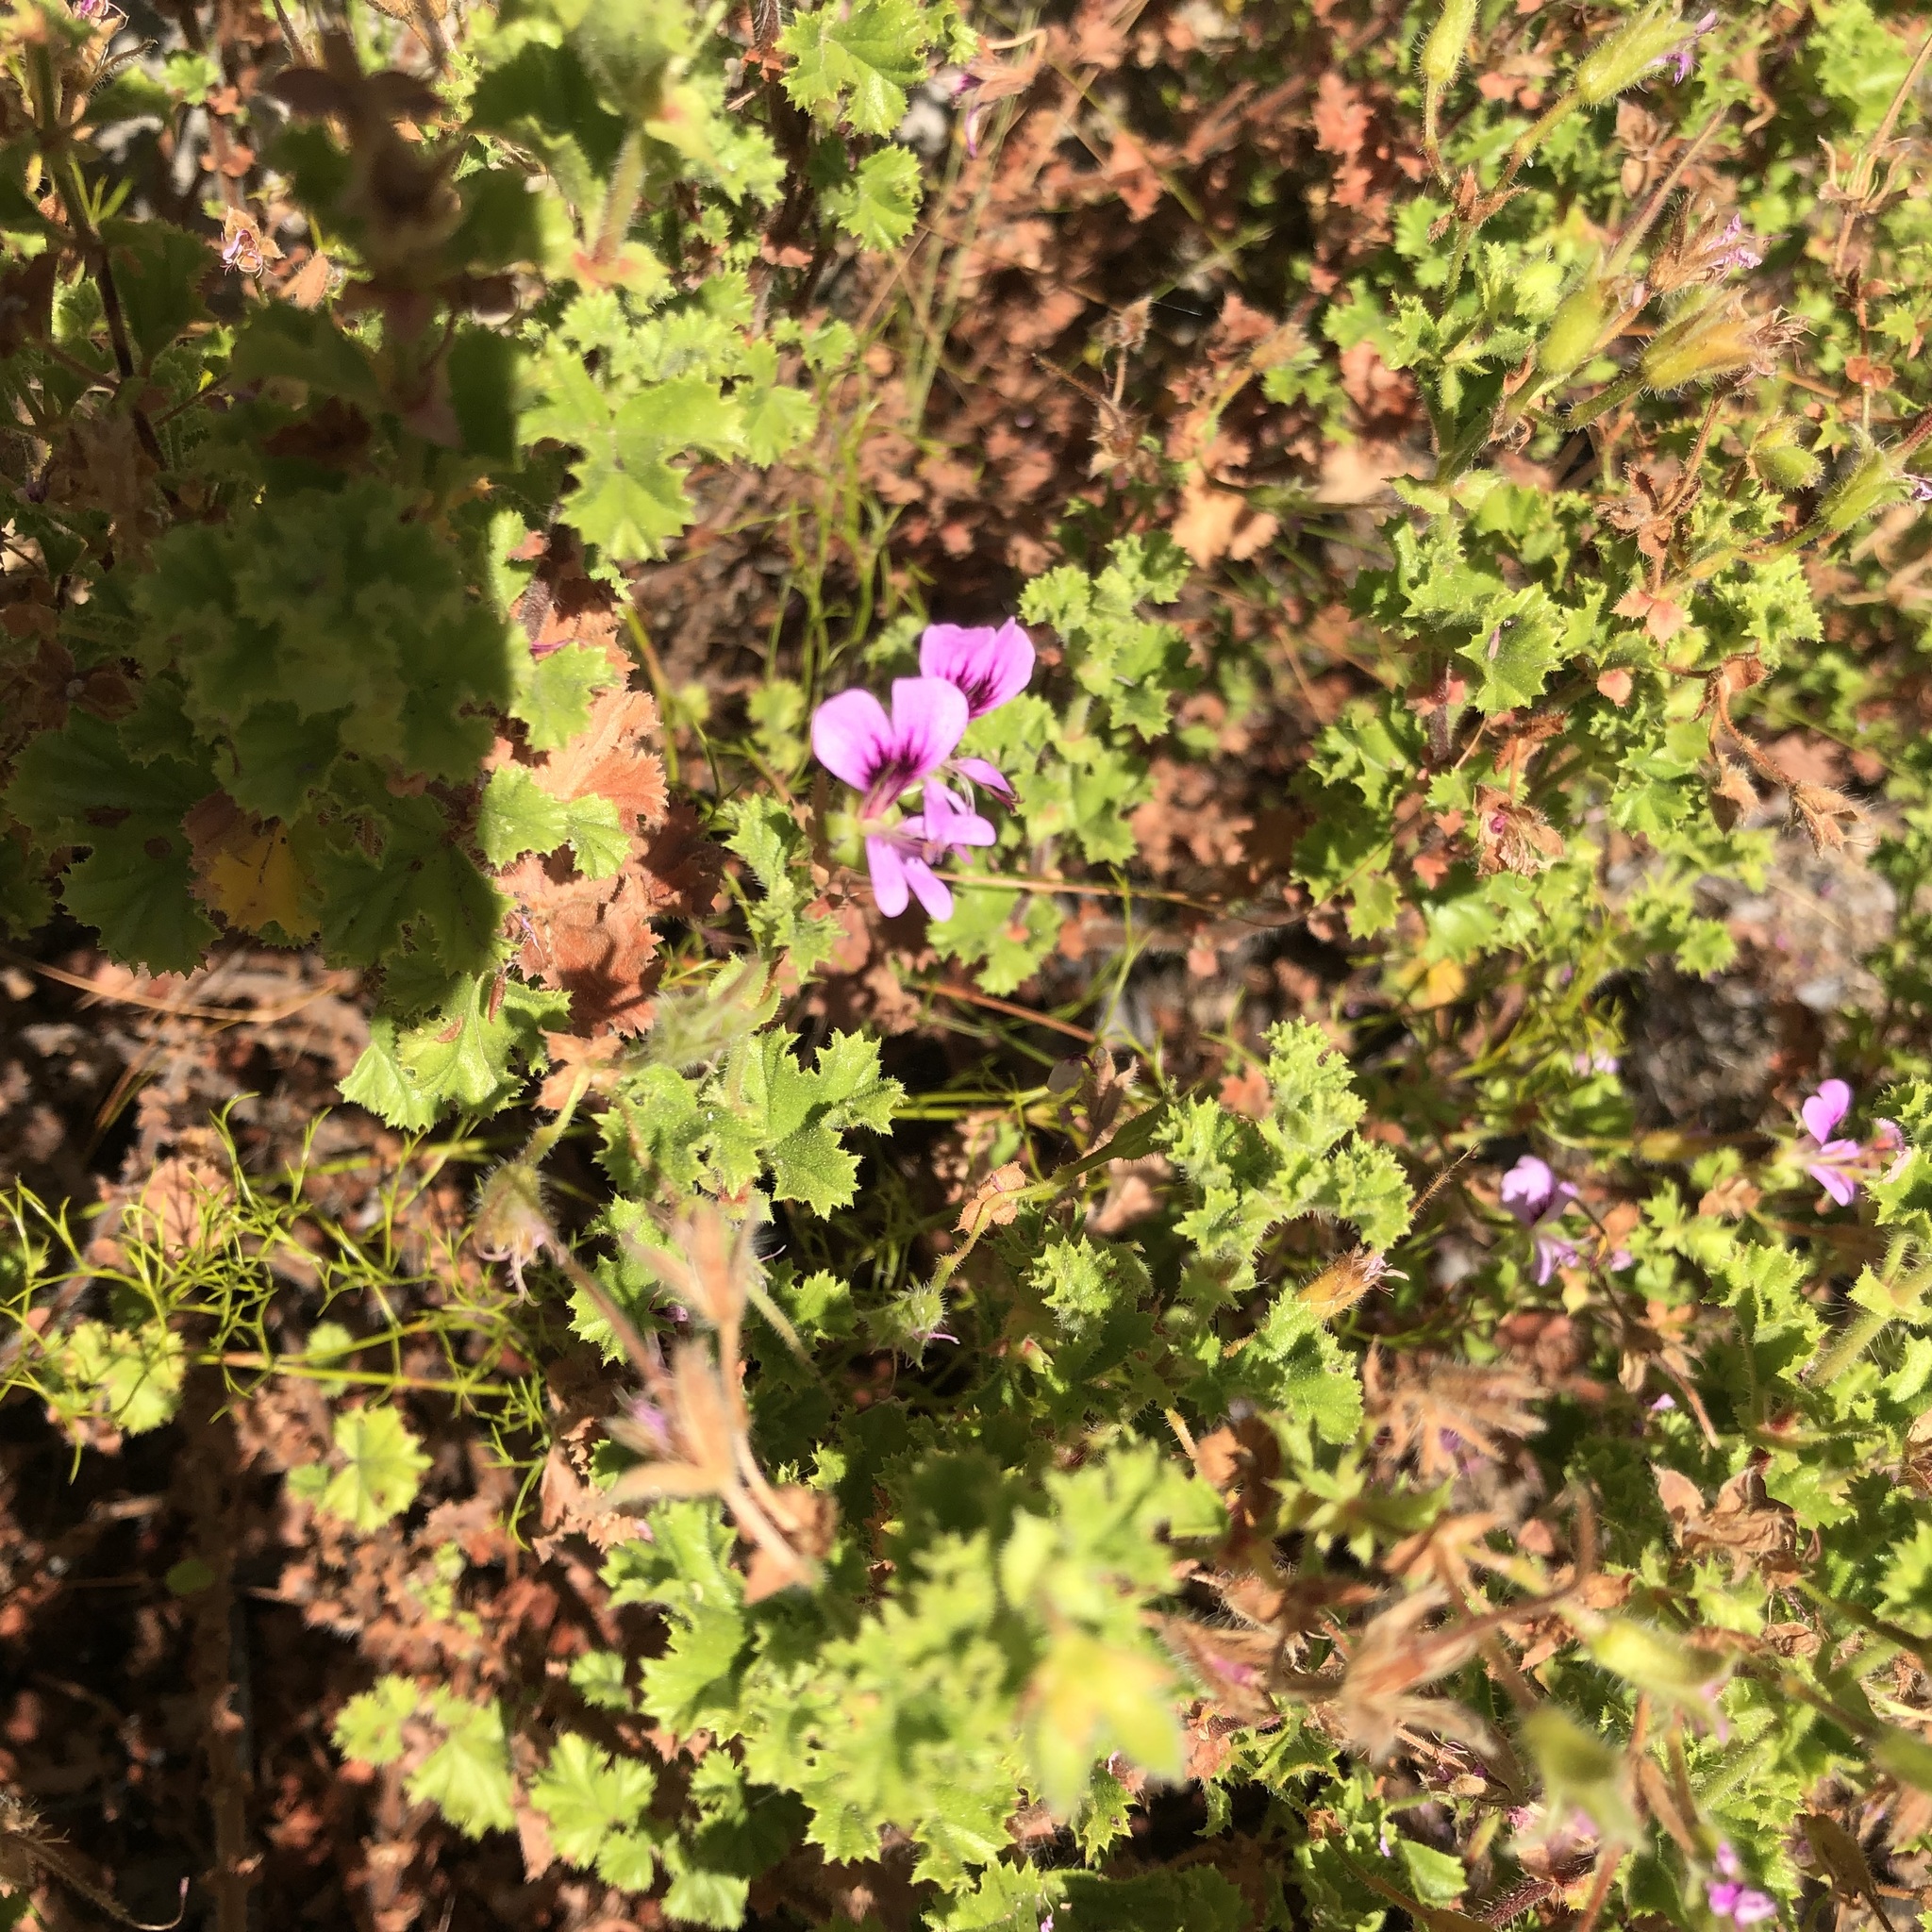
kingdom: Plantae
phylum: Tracheophyta
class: Magnoliopsida
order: Geraniales
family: Geraniaceae
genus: Pelargonium
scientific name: Pelargonium englerianum
